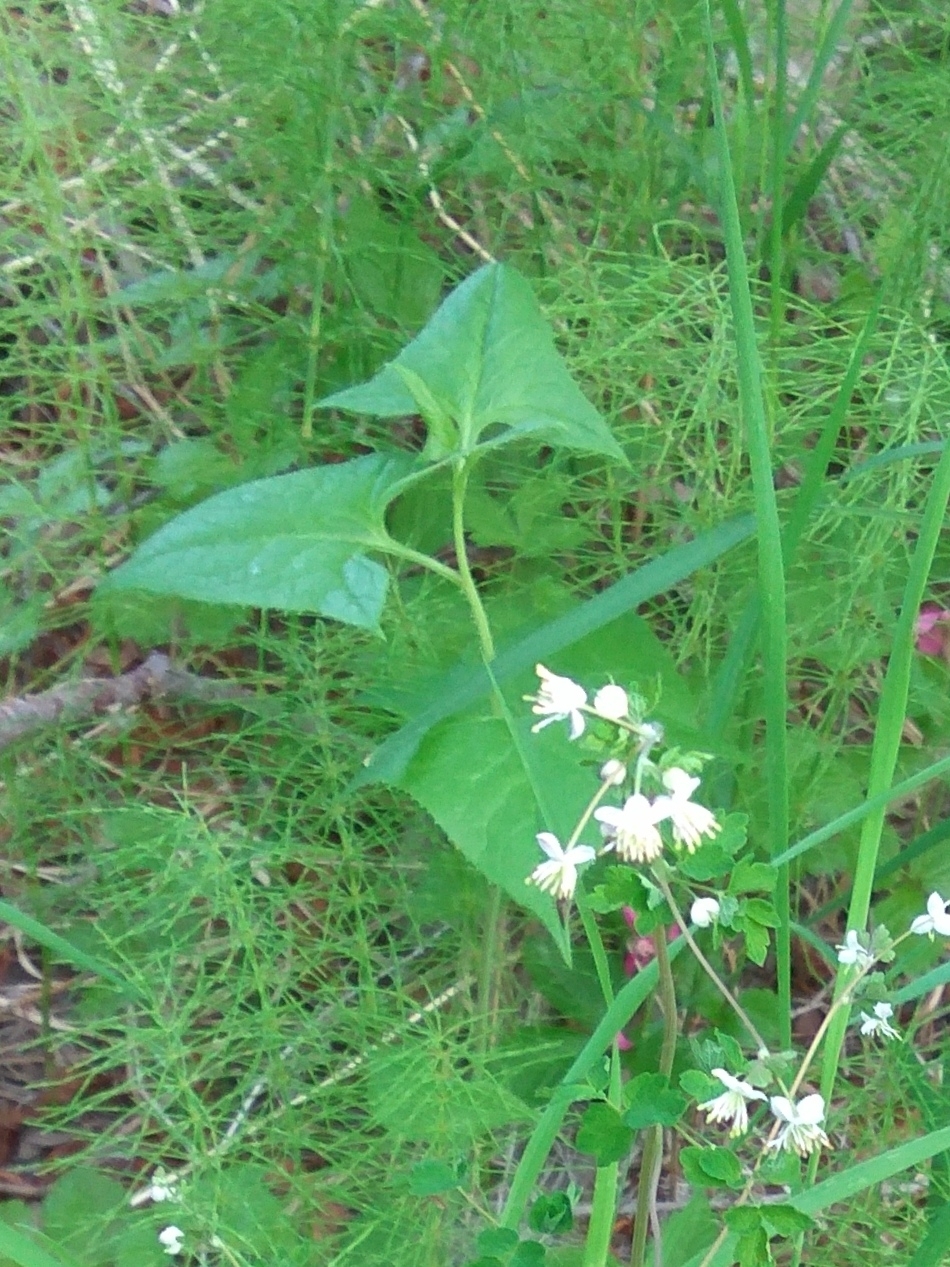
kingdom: Plantae
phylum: Tracheophyta
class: Magnoliopsida
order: Asterales
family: Asteraceae
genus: Parasenecio
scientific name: Parasenecio hastatus
